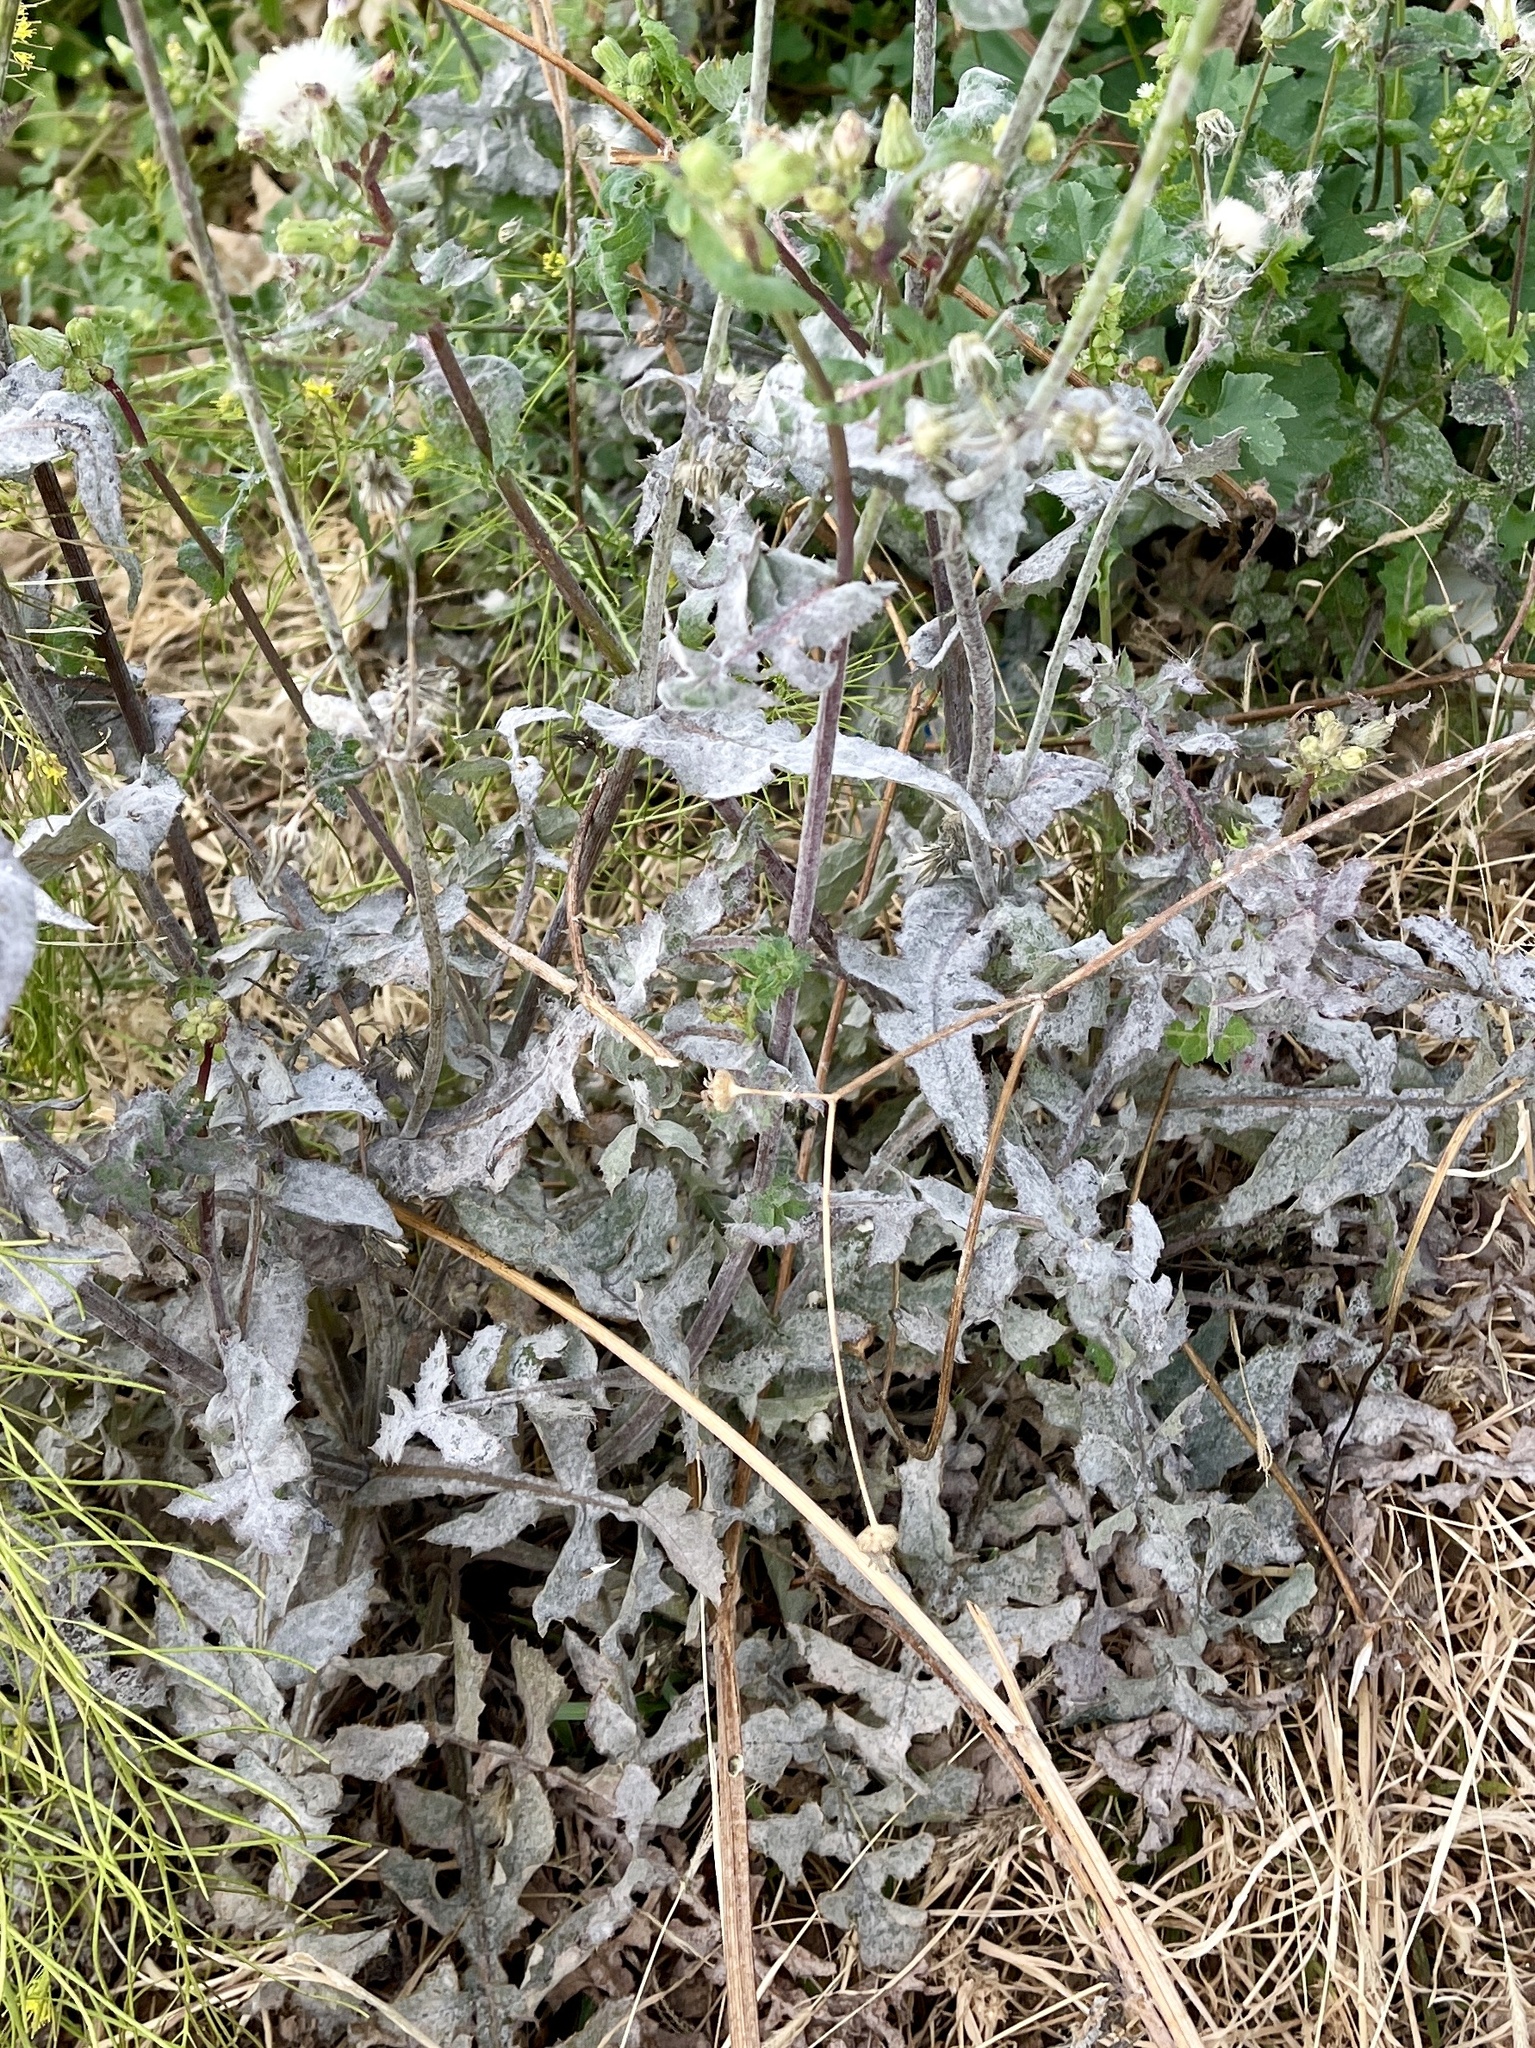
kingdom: Plantae
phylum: Tracheophyta
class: Magnoliopsida
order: Asterales
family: Asteraceae
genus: Sonchus
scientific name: Sonchus oleraceus
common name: Common sowthistle
